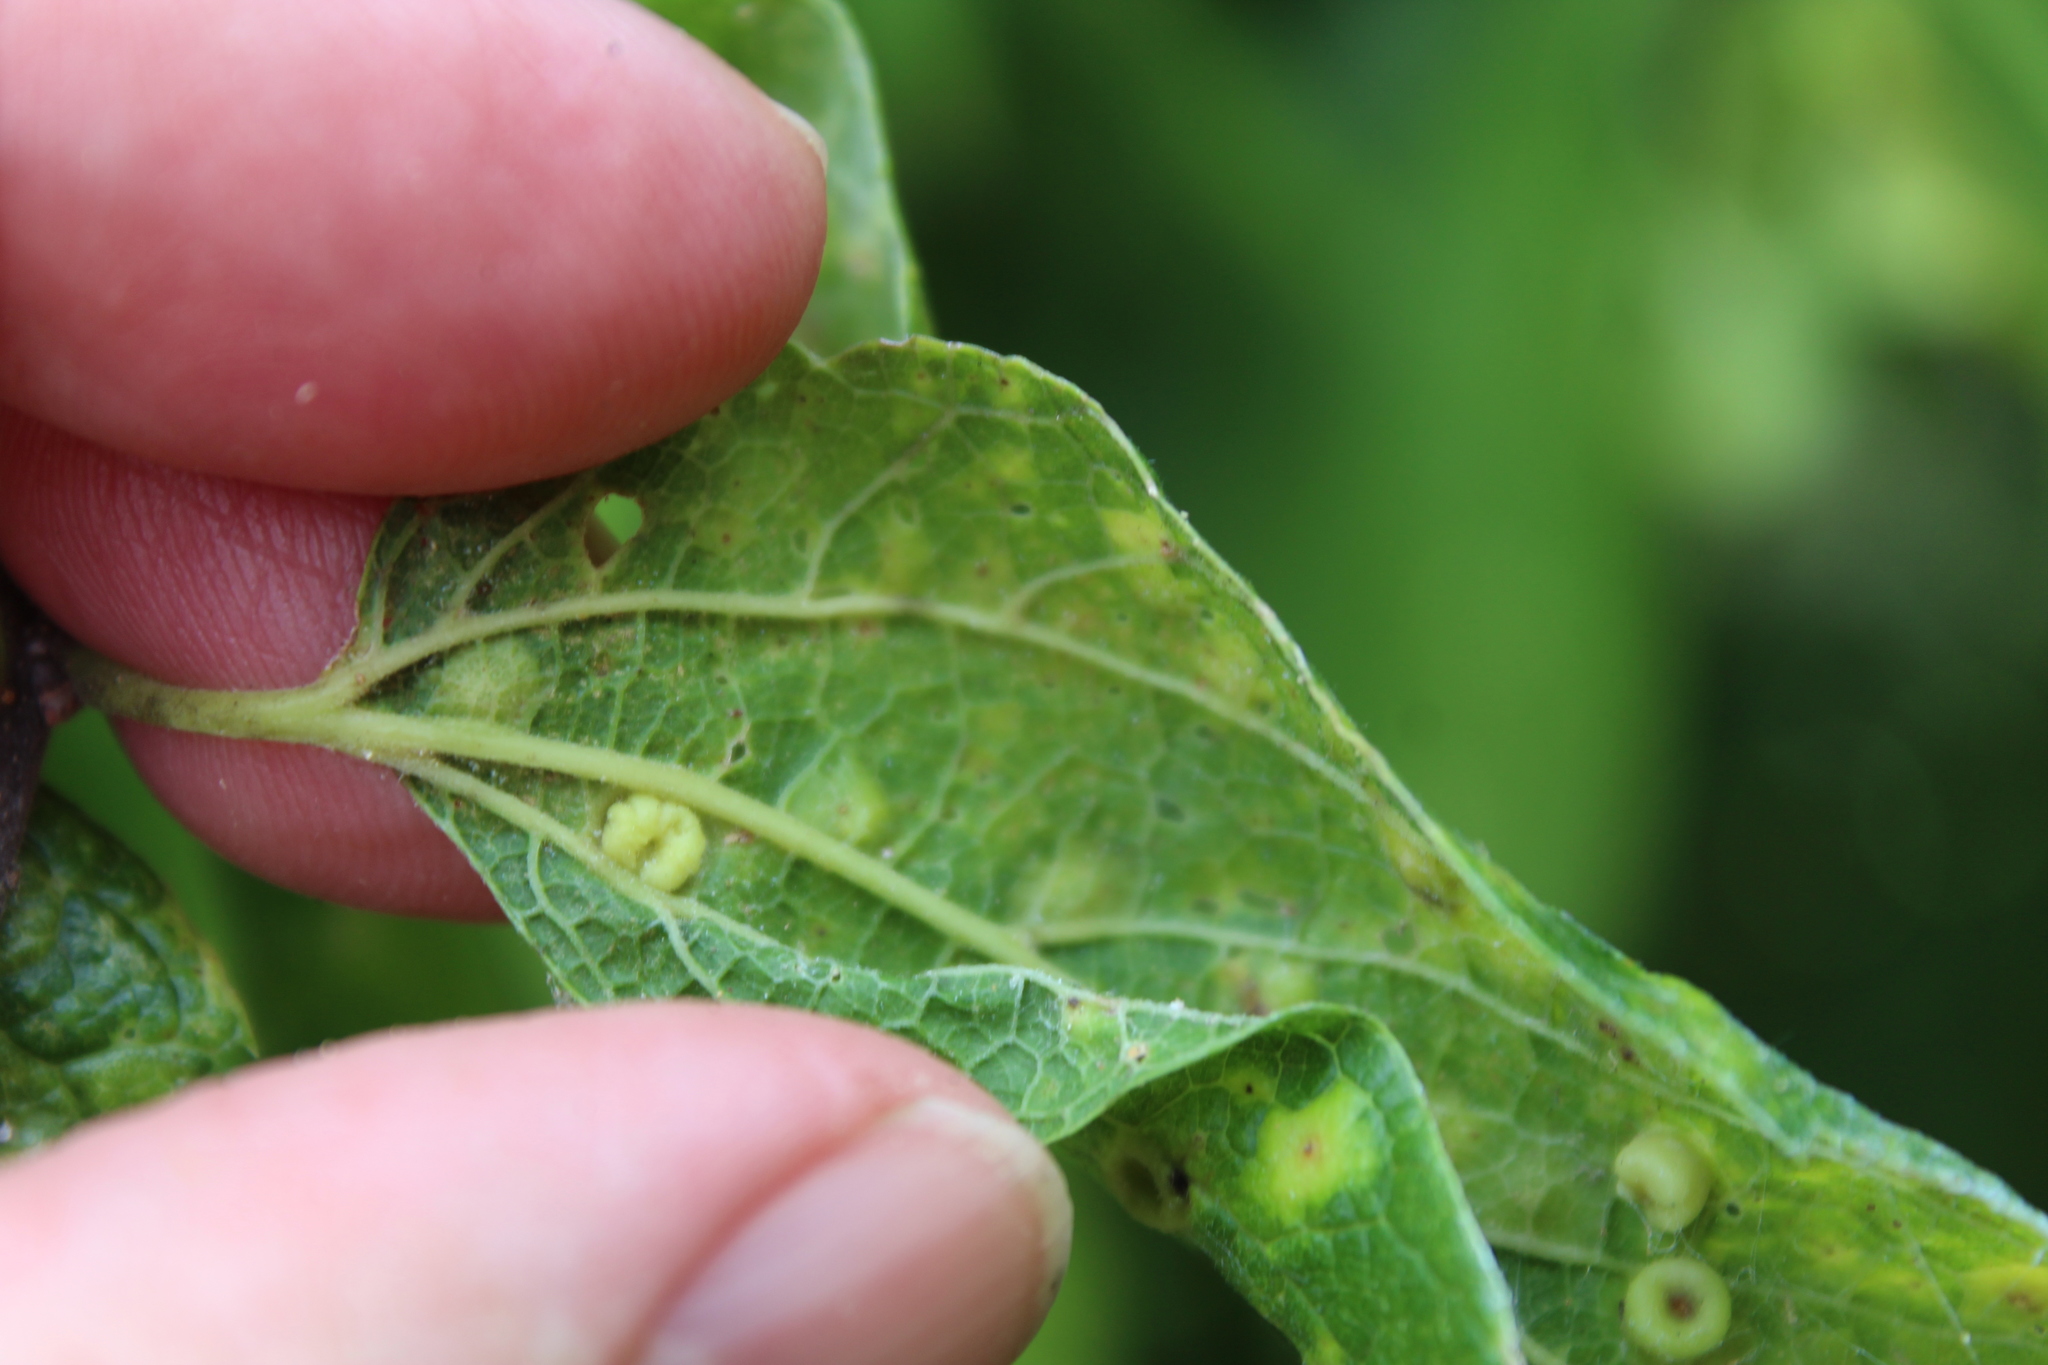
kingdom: Animalia
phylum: Arthropoda
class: Insecta
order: Hemiptera
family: Aphalaridae
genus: Pachypsylla
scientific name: Pachypsylla celtidismamma
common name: Hackberry nipplegall psyllid
